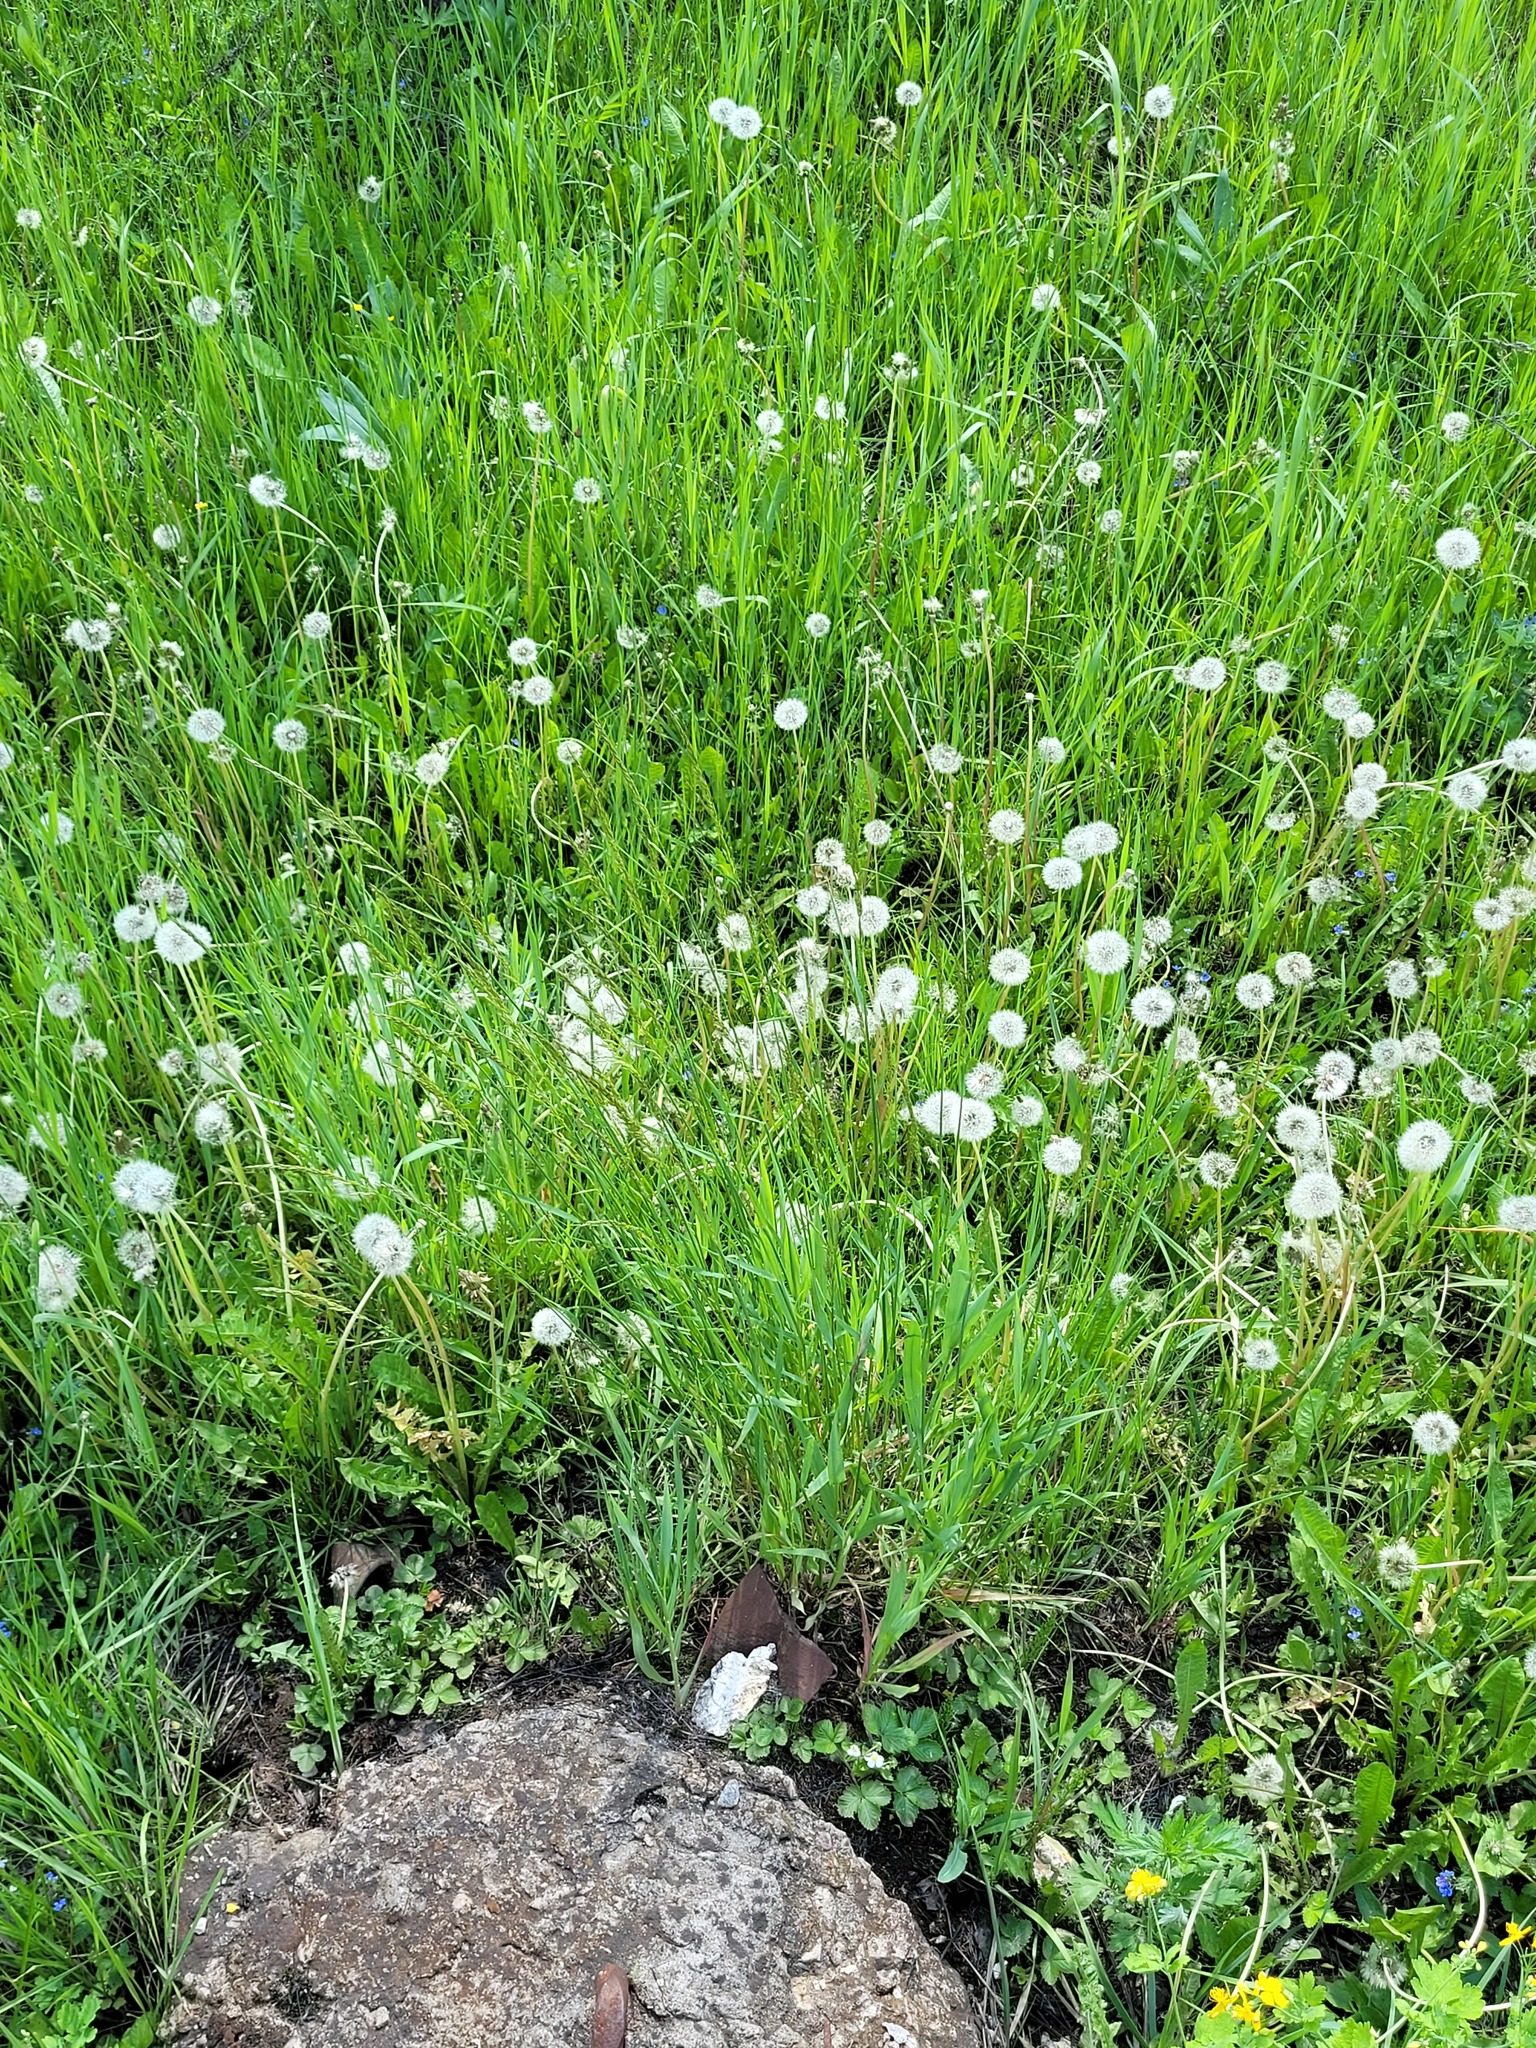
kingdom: Plantae
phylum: Tracheophyta
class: Liliopsida
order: Poales
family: Poaceae
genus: Arrhenatherum
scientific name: Arrhenatherum elatius
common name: Tall oatgrass
